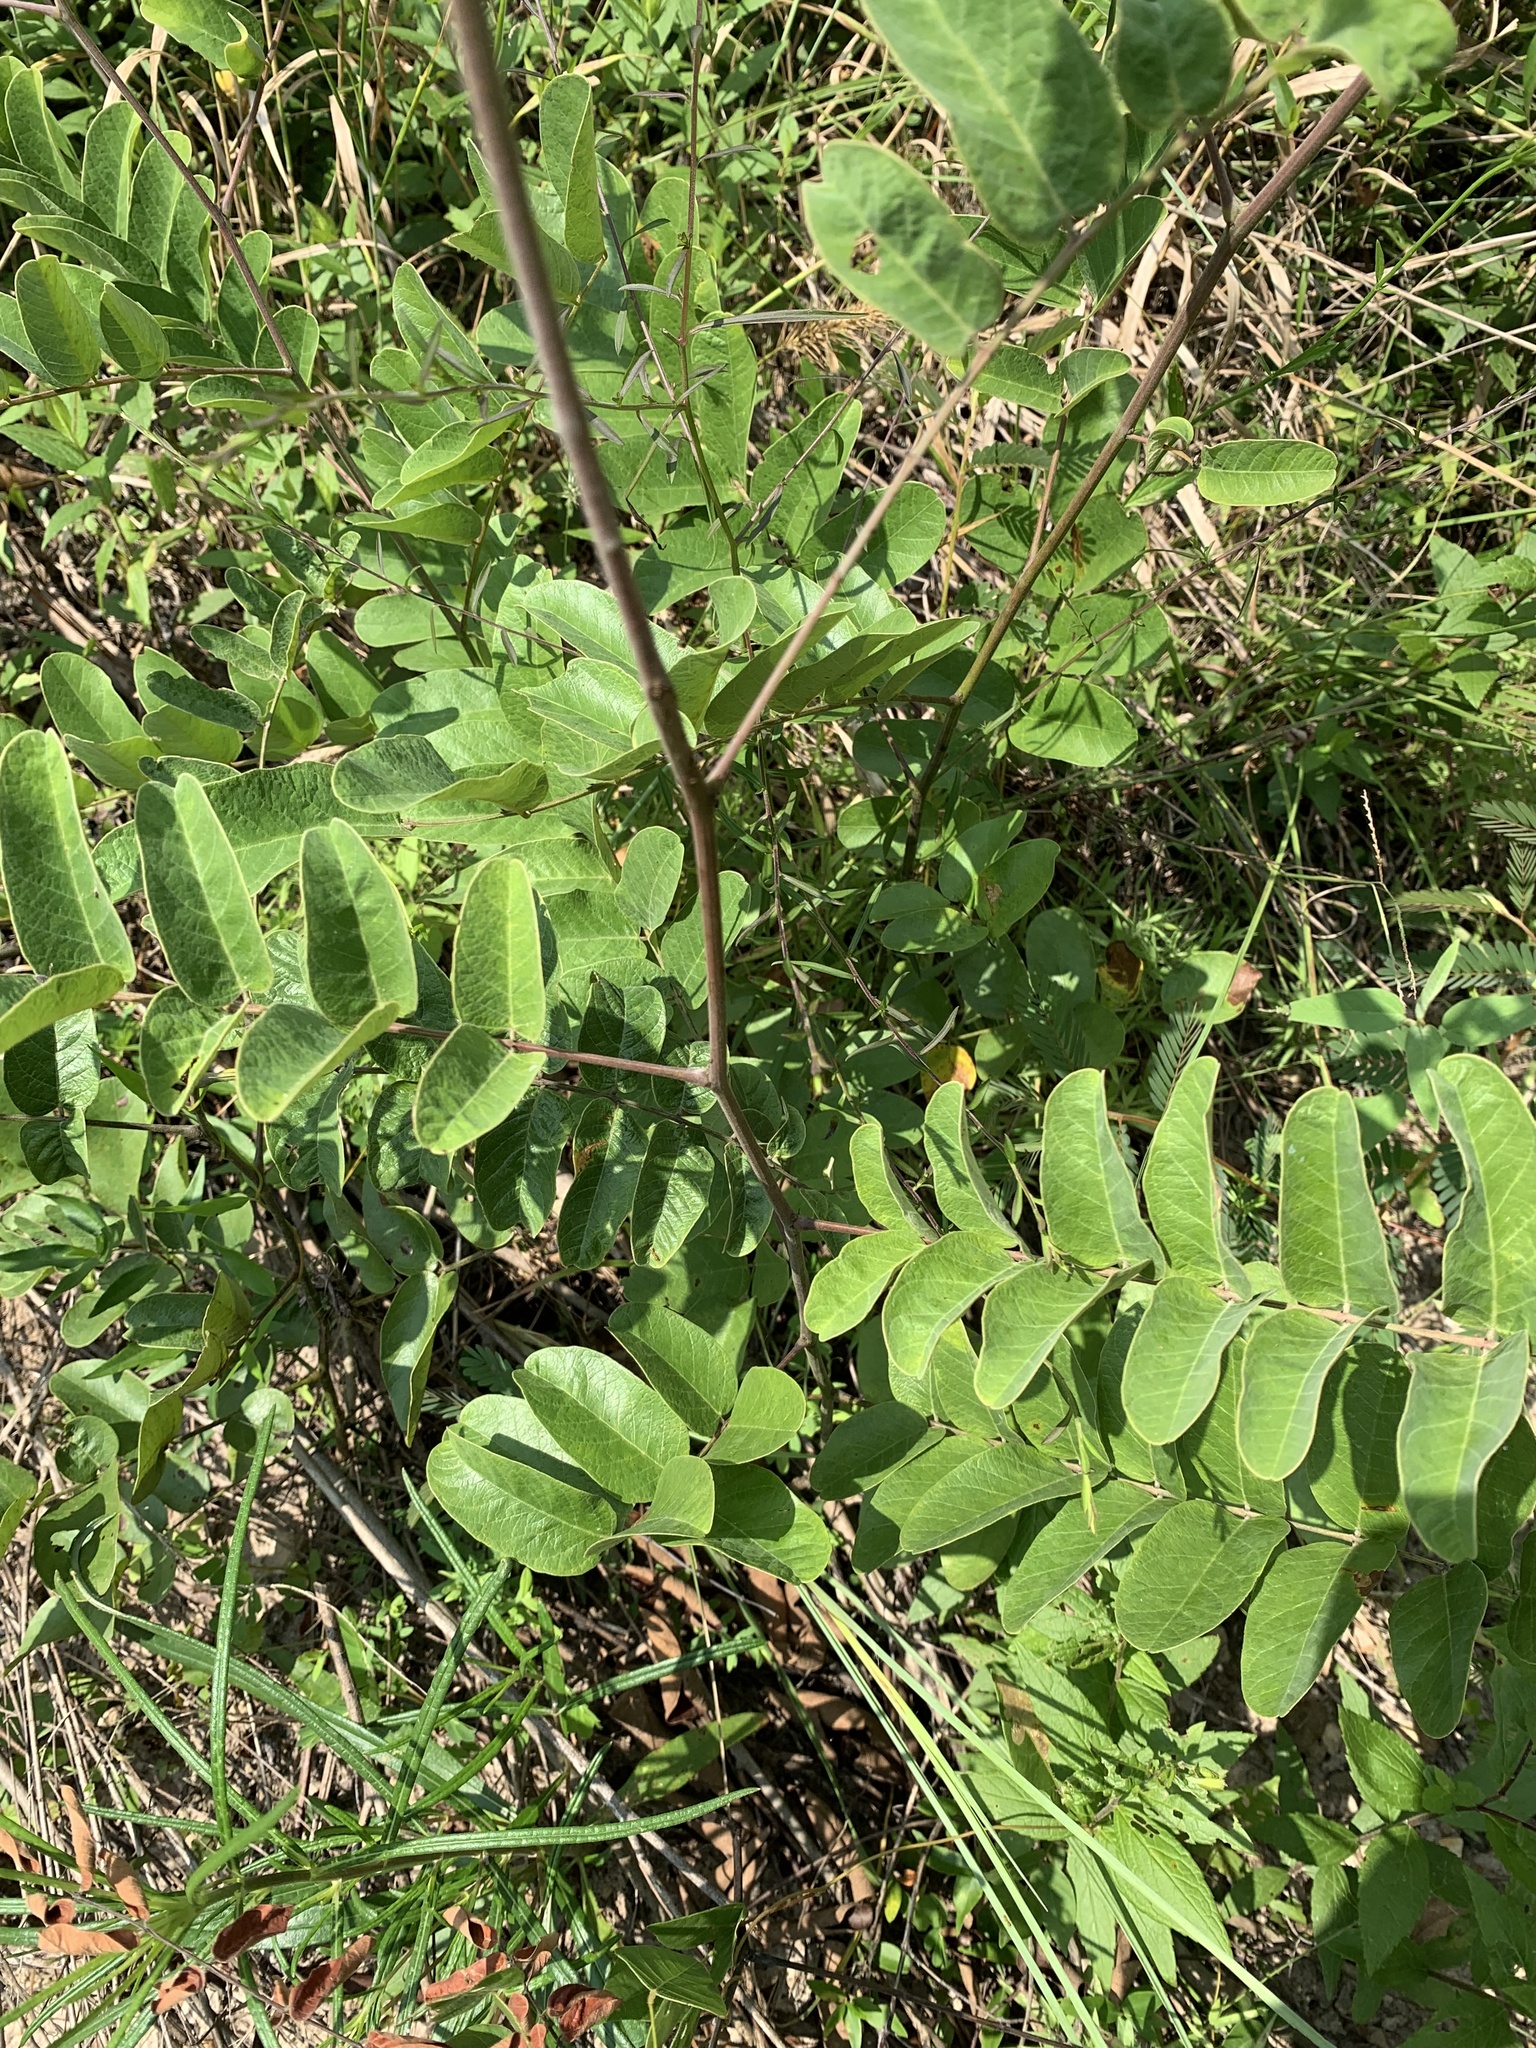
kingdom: Plantae
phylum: Tracheophyta
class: Magnoliopsida
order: Fabales
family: Fabaceae
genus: Amorpha
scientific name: Amorpha paniculata
